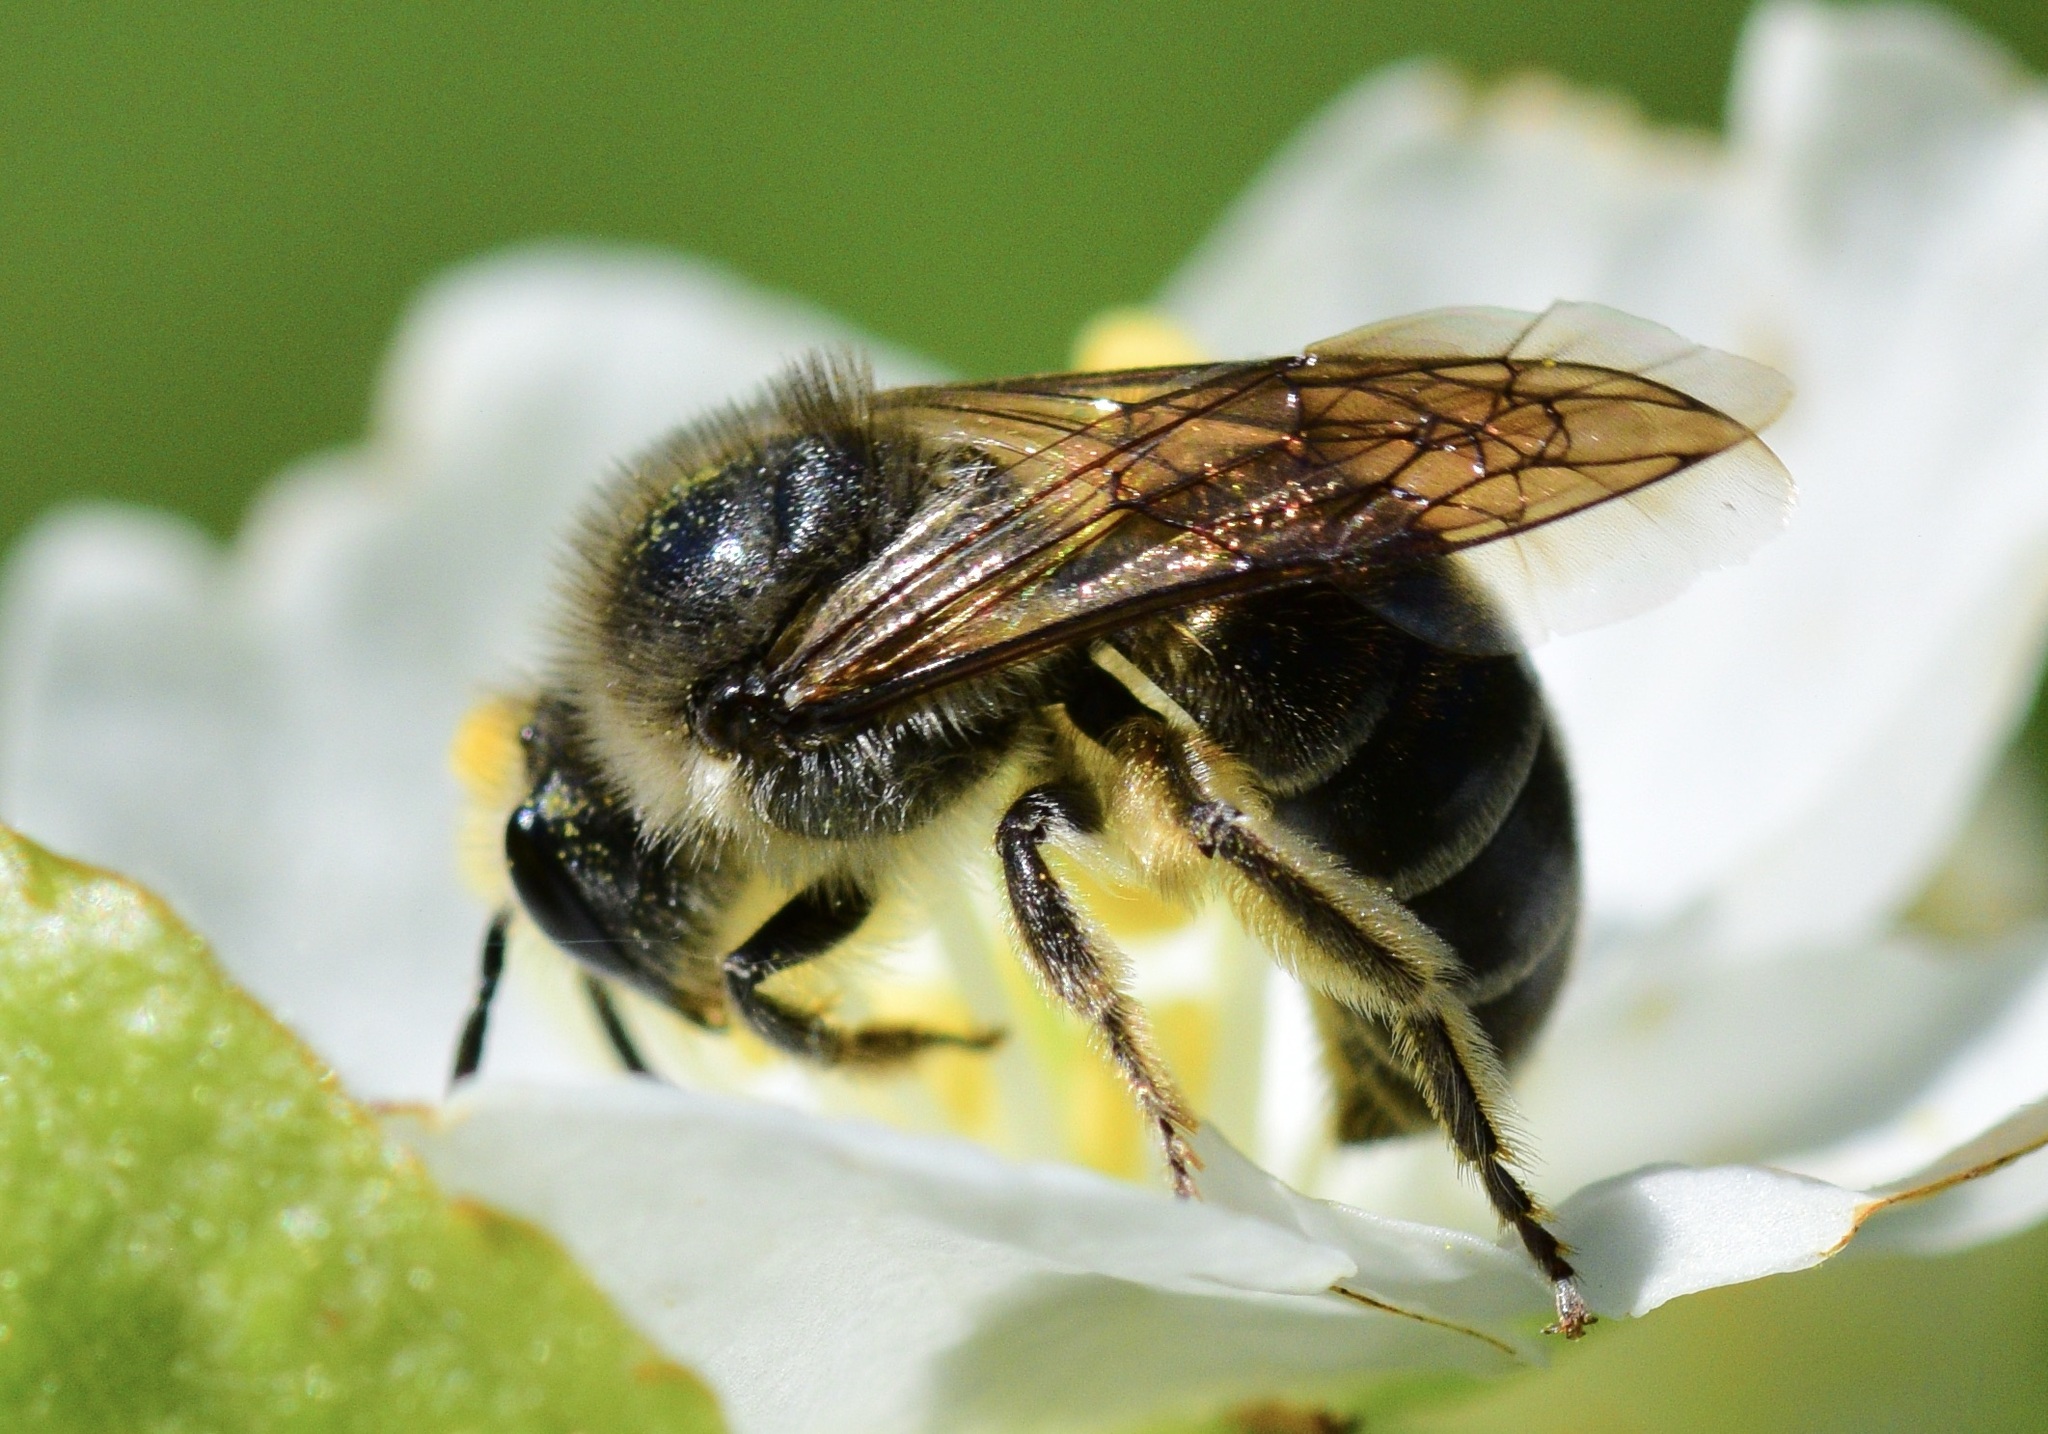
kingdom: Animalia
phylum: Arthropoda
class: Insecta
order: Hymenoptera
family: Colletidae
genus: Colletes
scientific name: Colletes inaequalis
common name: Unequal cellophane bee
